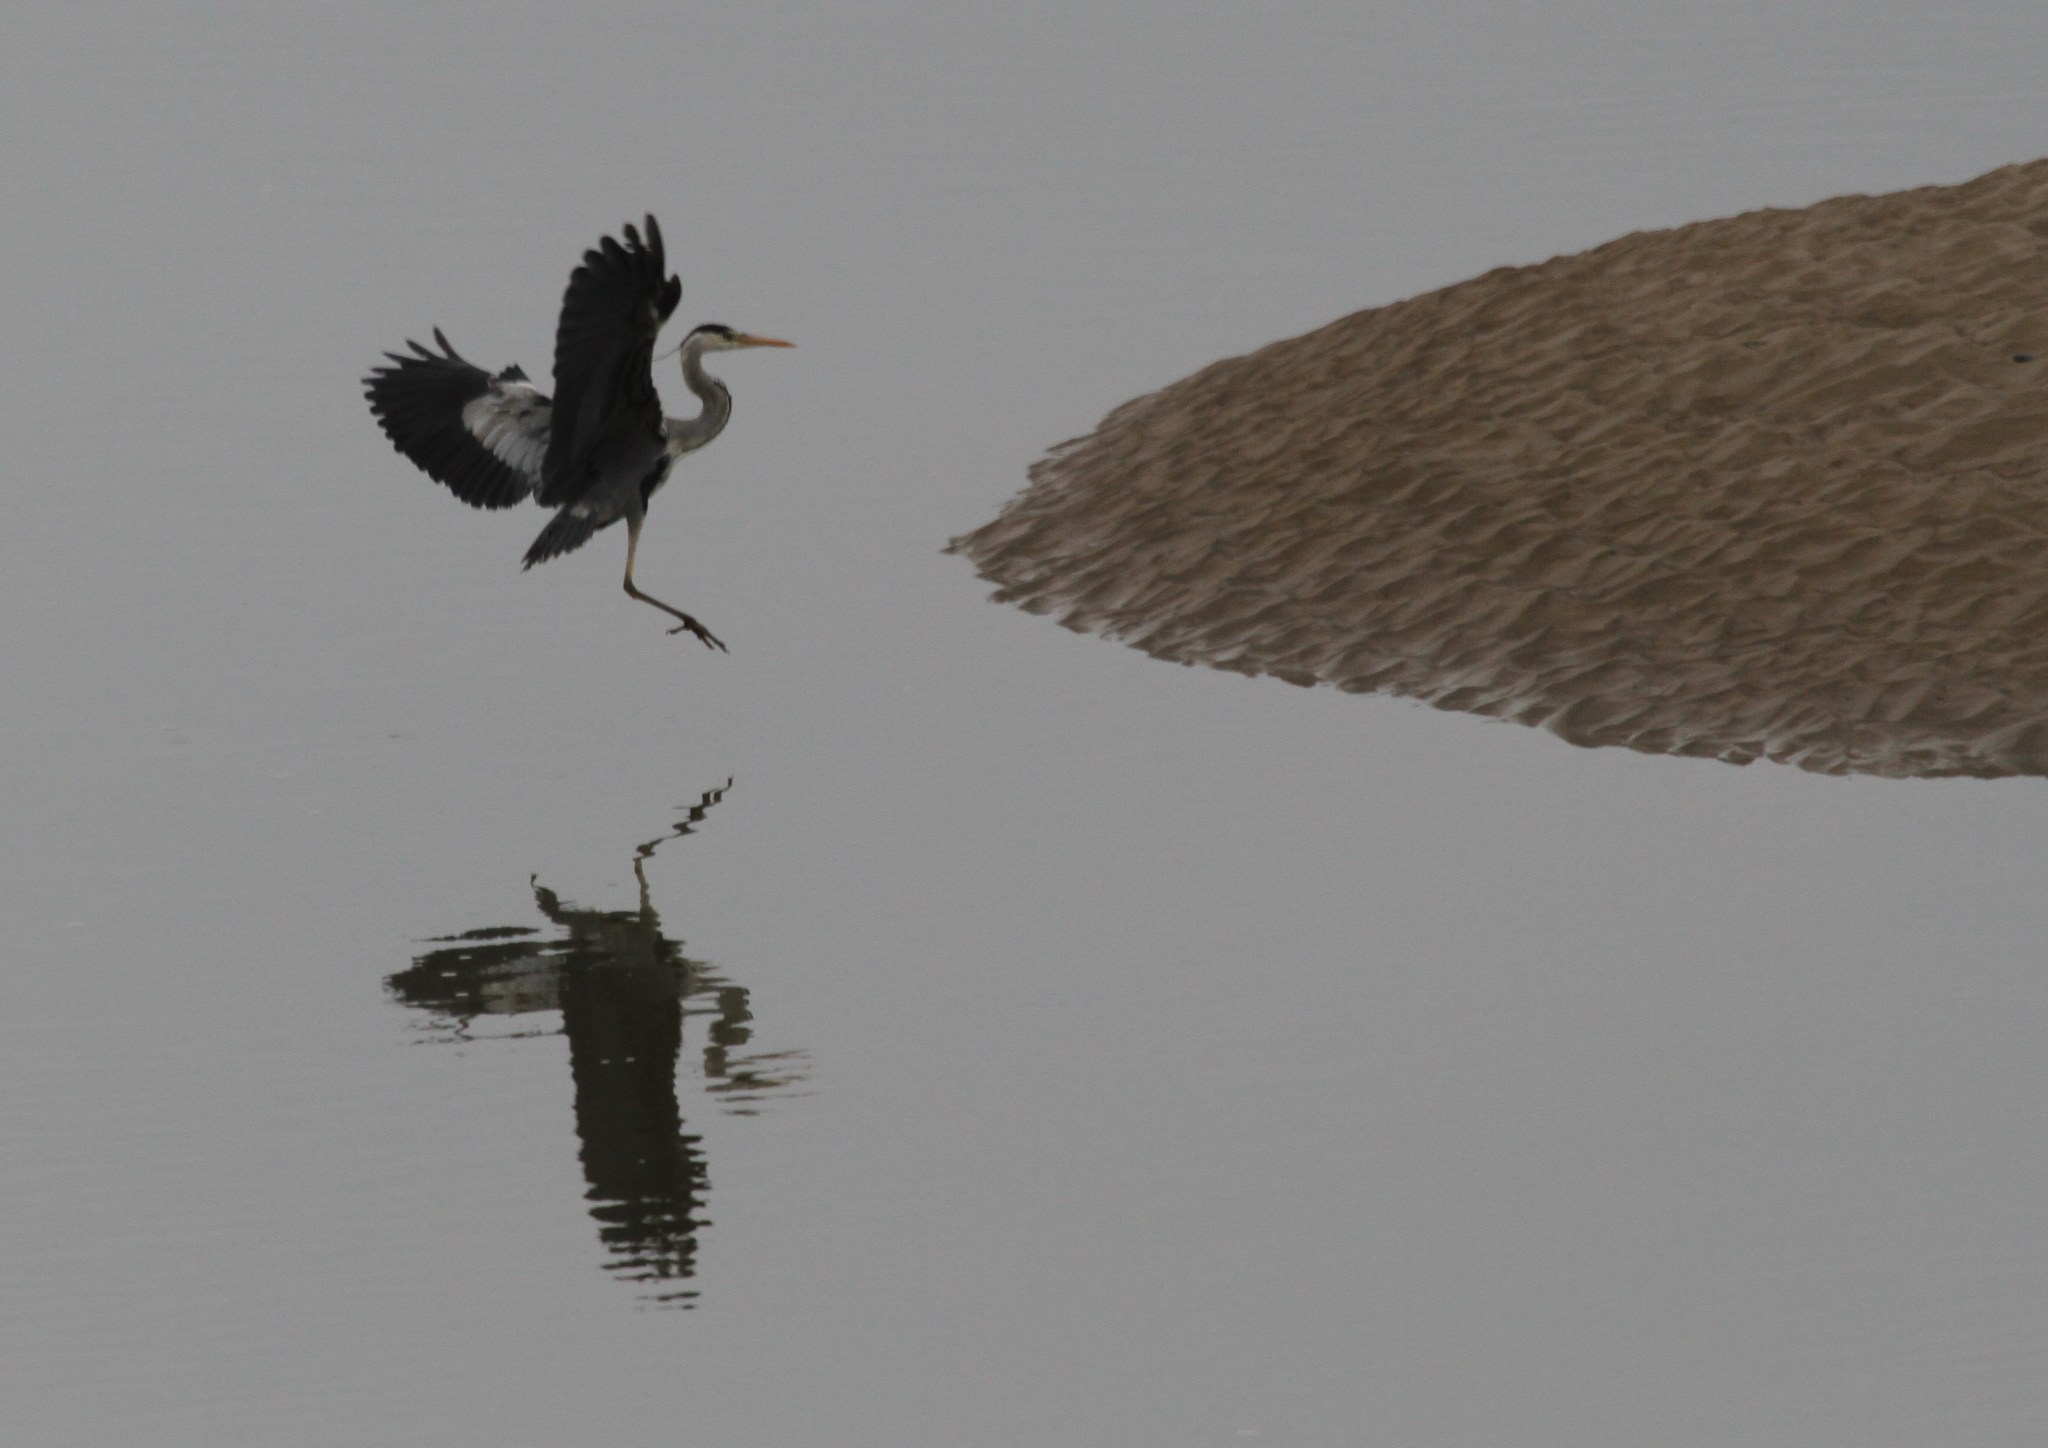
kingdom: Animalia
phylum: Chordata
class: Aves
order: Pelecaniformes
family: Ardeidae
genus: Ardea
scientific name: Ardea cinerea
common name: Grey heron
